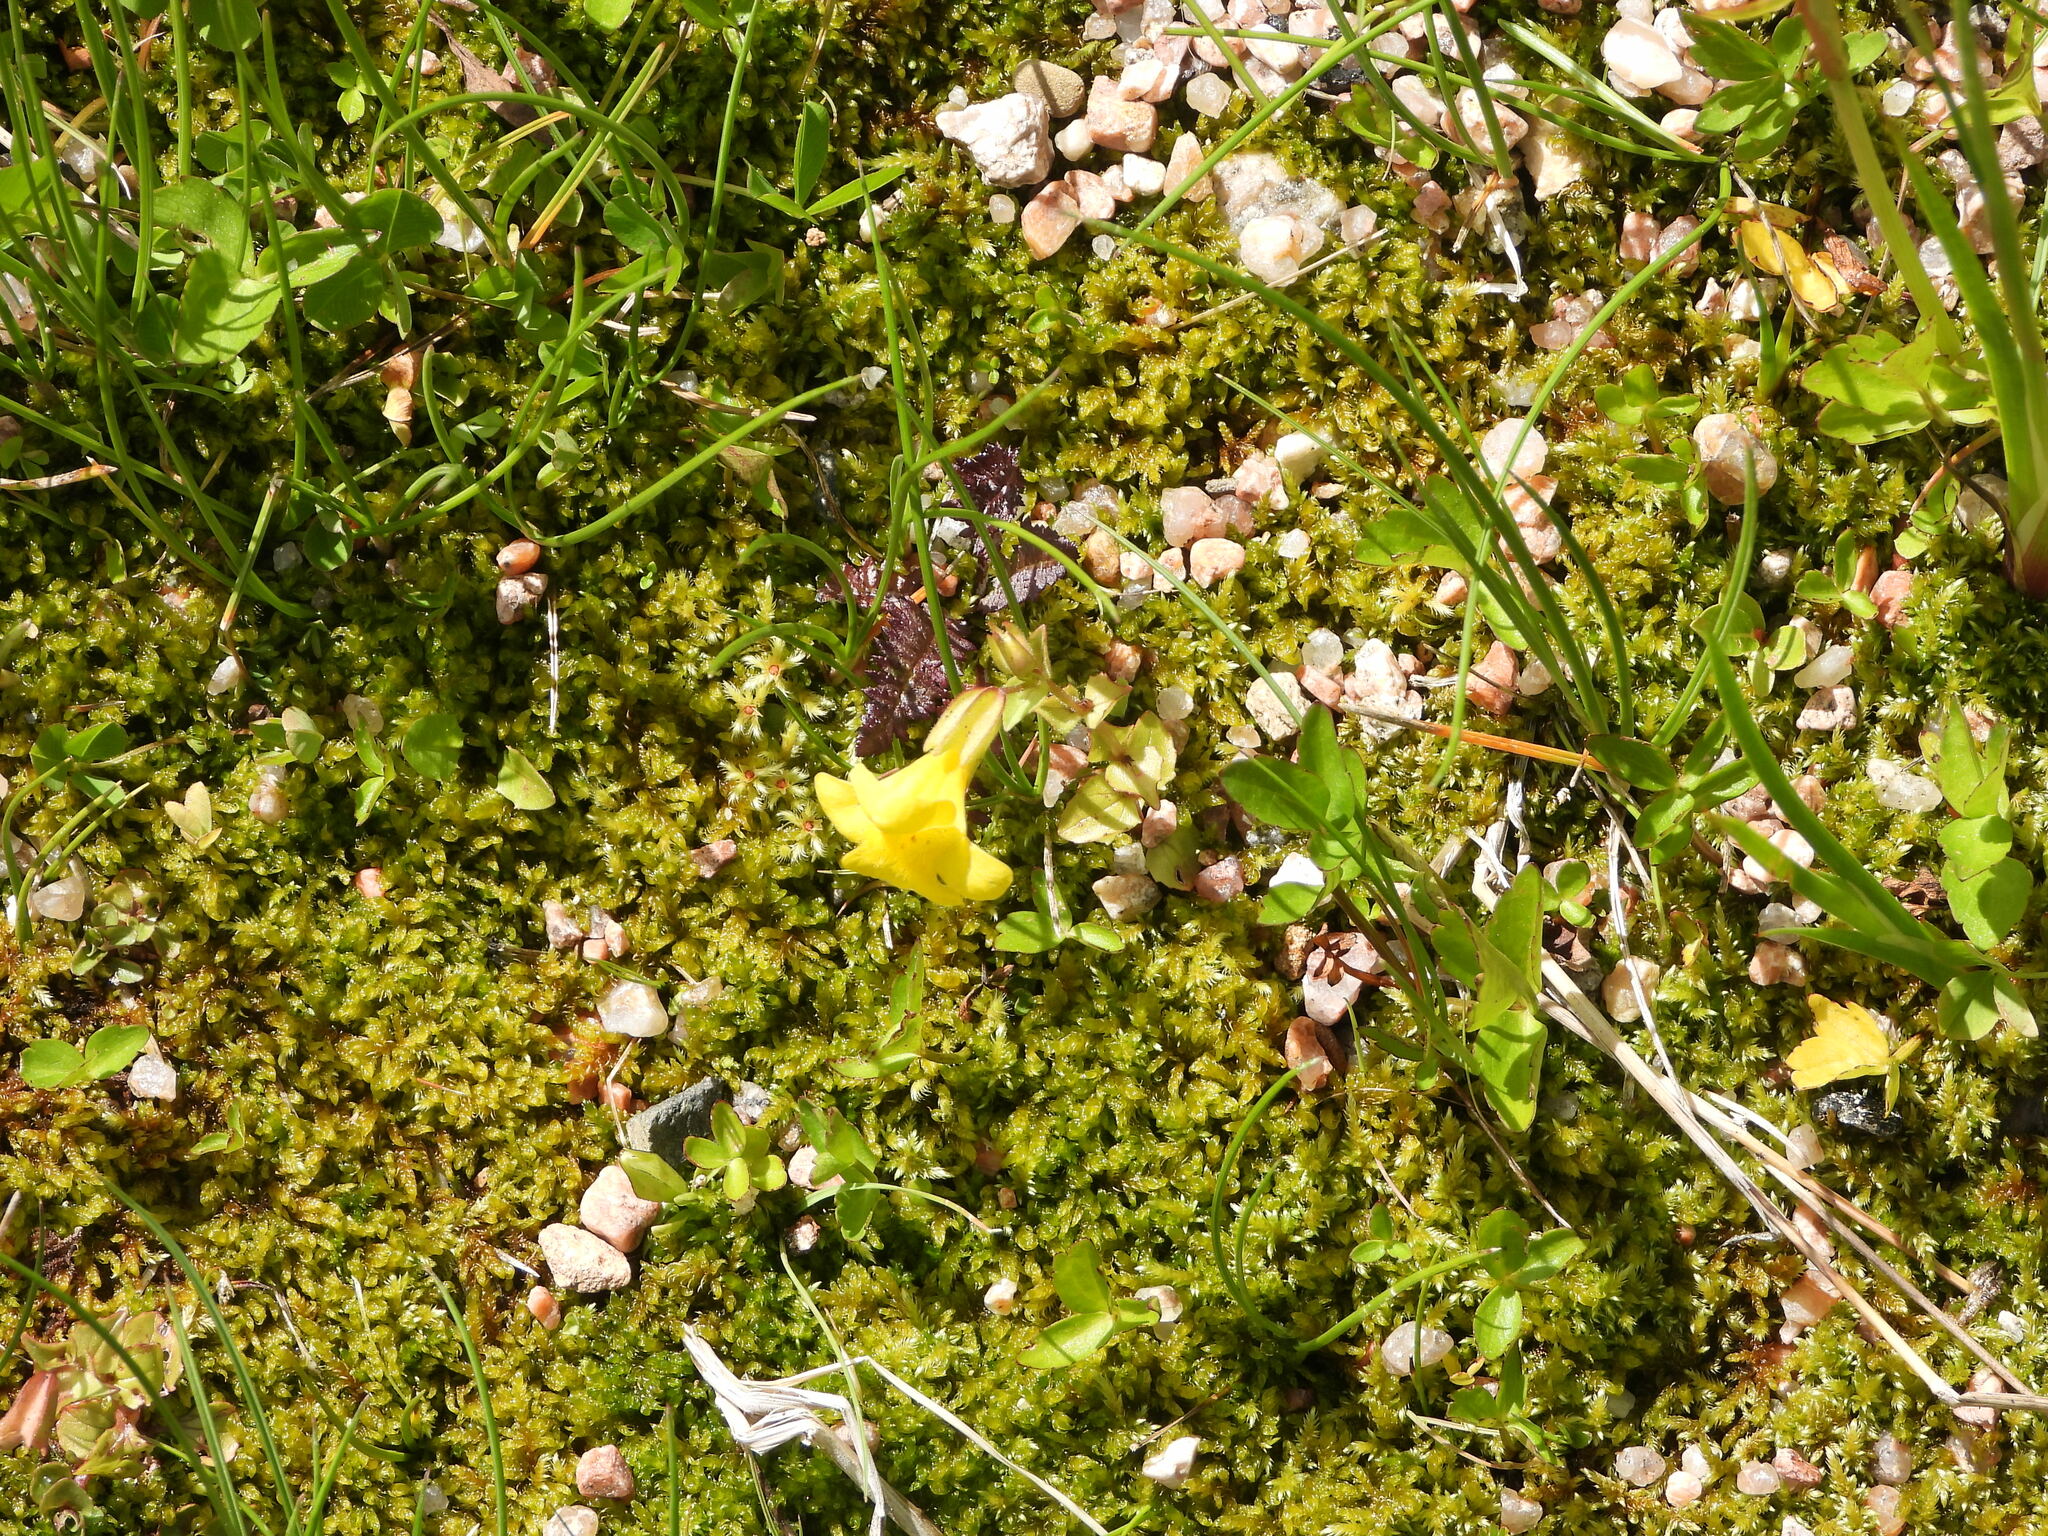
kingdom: Plantae
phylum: Tracheophyta
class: Magnoliopsida
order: Lamiales
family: Phrymaceae
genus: Erythranthe
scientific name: Erythranthe minor
